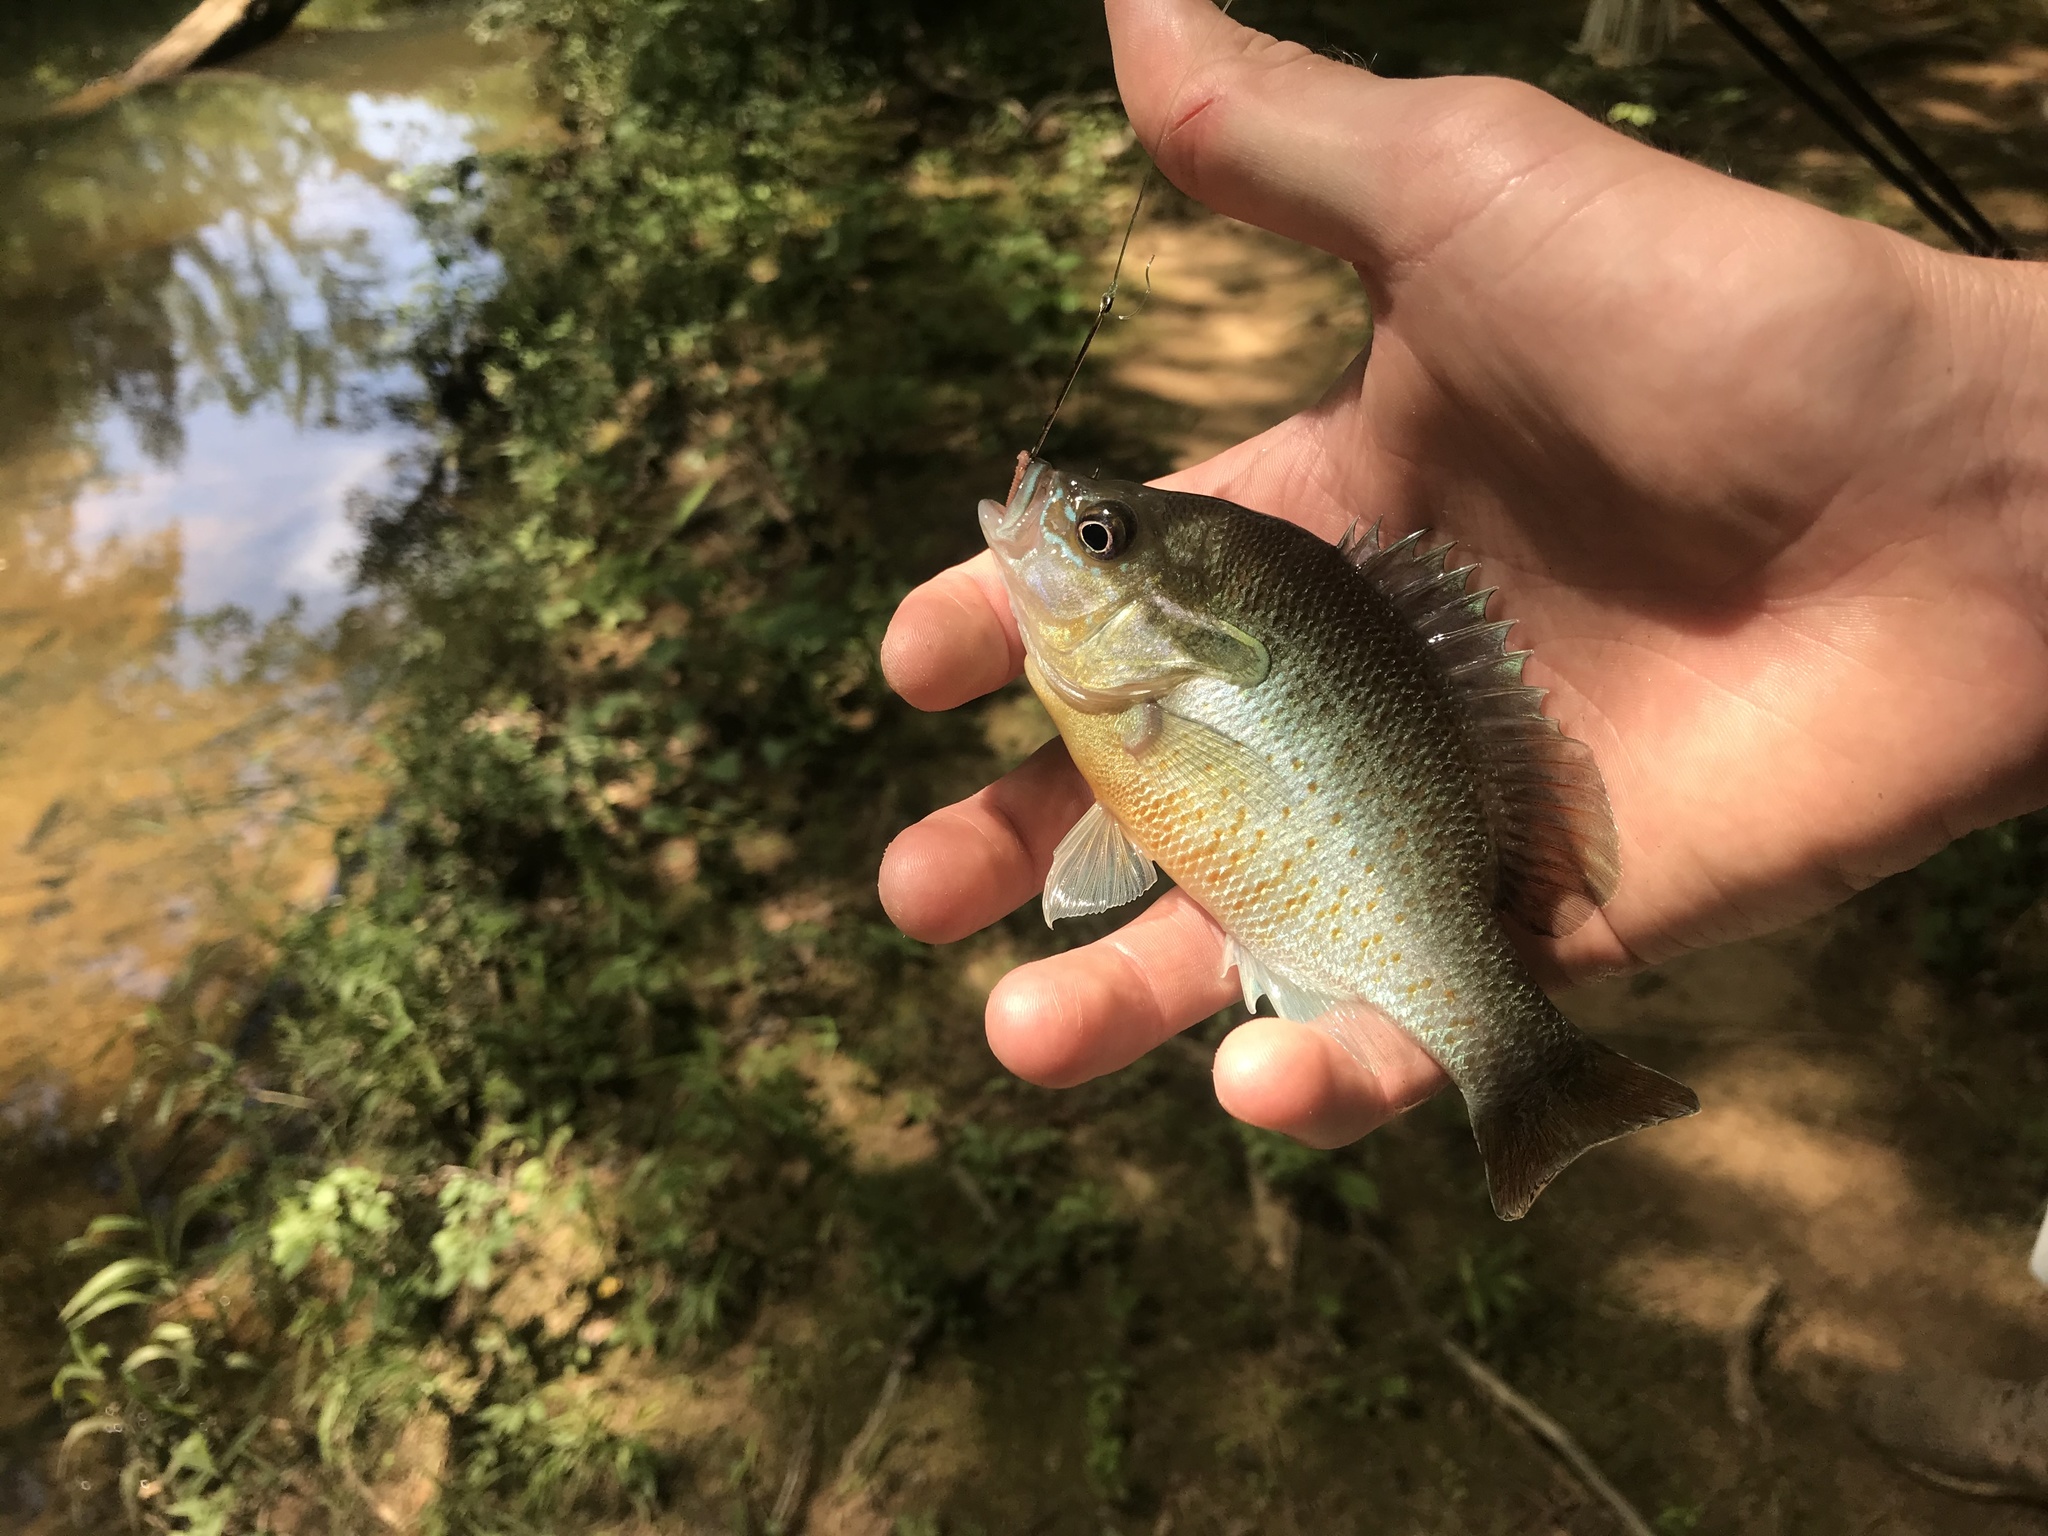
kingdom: Animalia
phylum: Chordata
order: Perciformes
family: Centrarchidae
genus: Lepomis
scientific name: Lepomis auritus
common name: Redbreast sunfish
